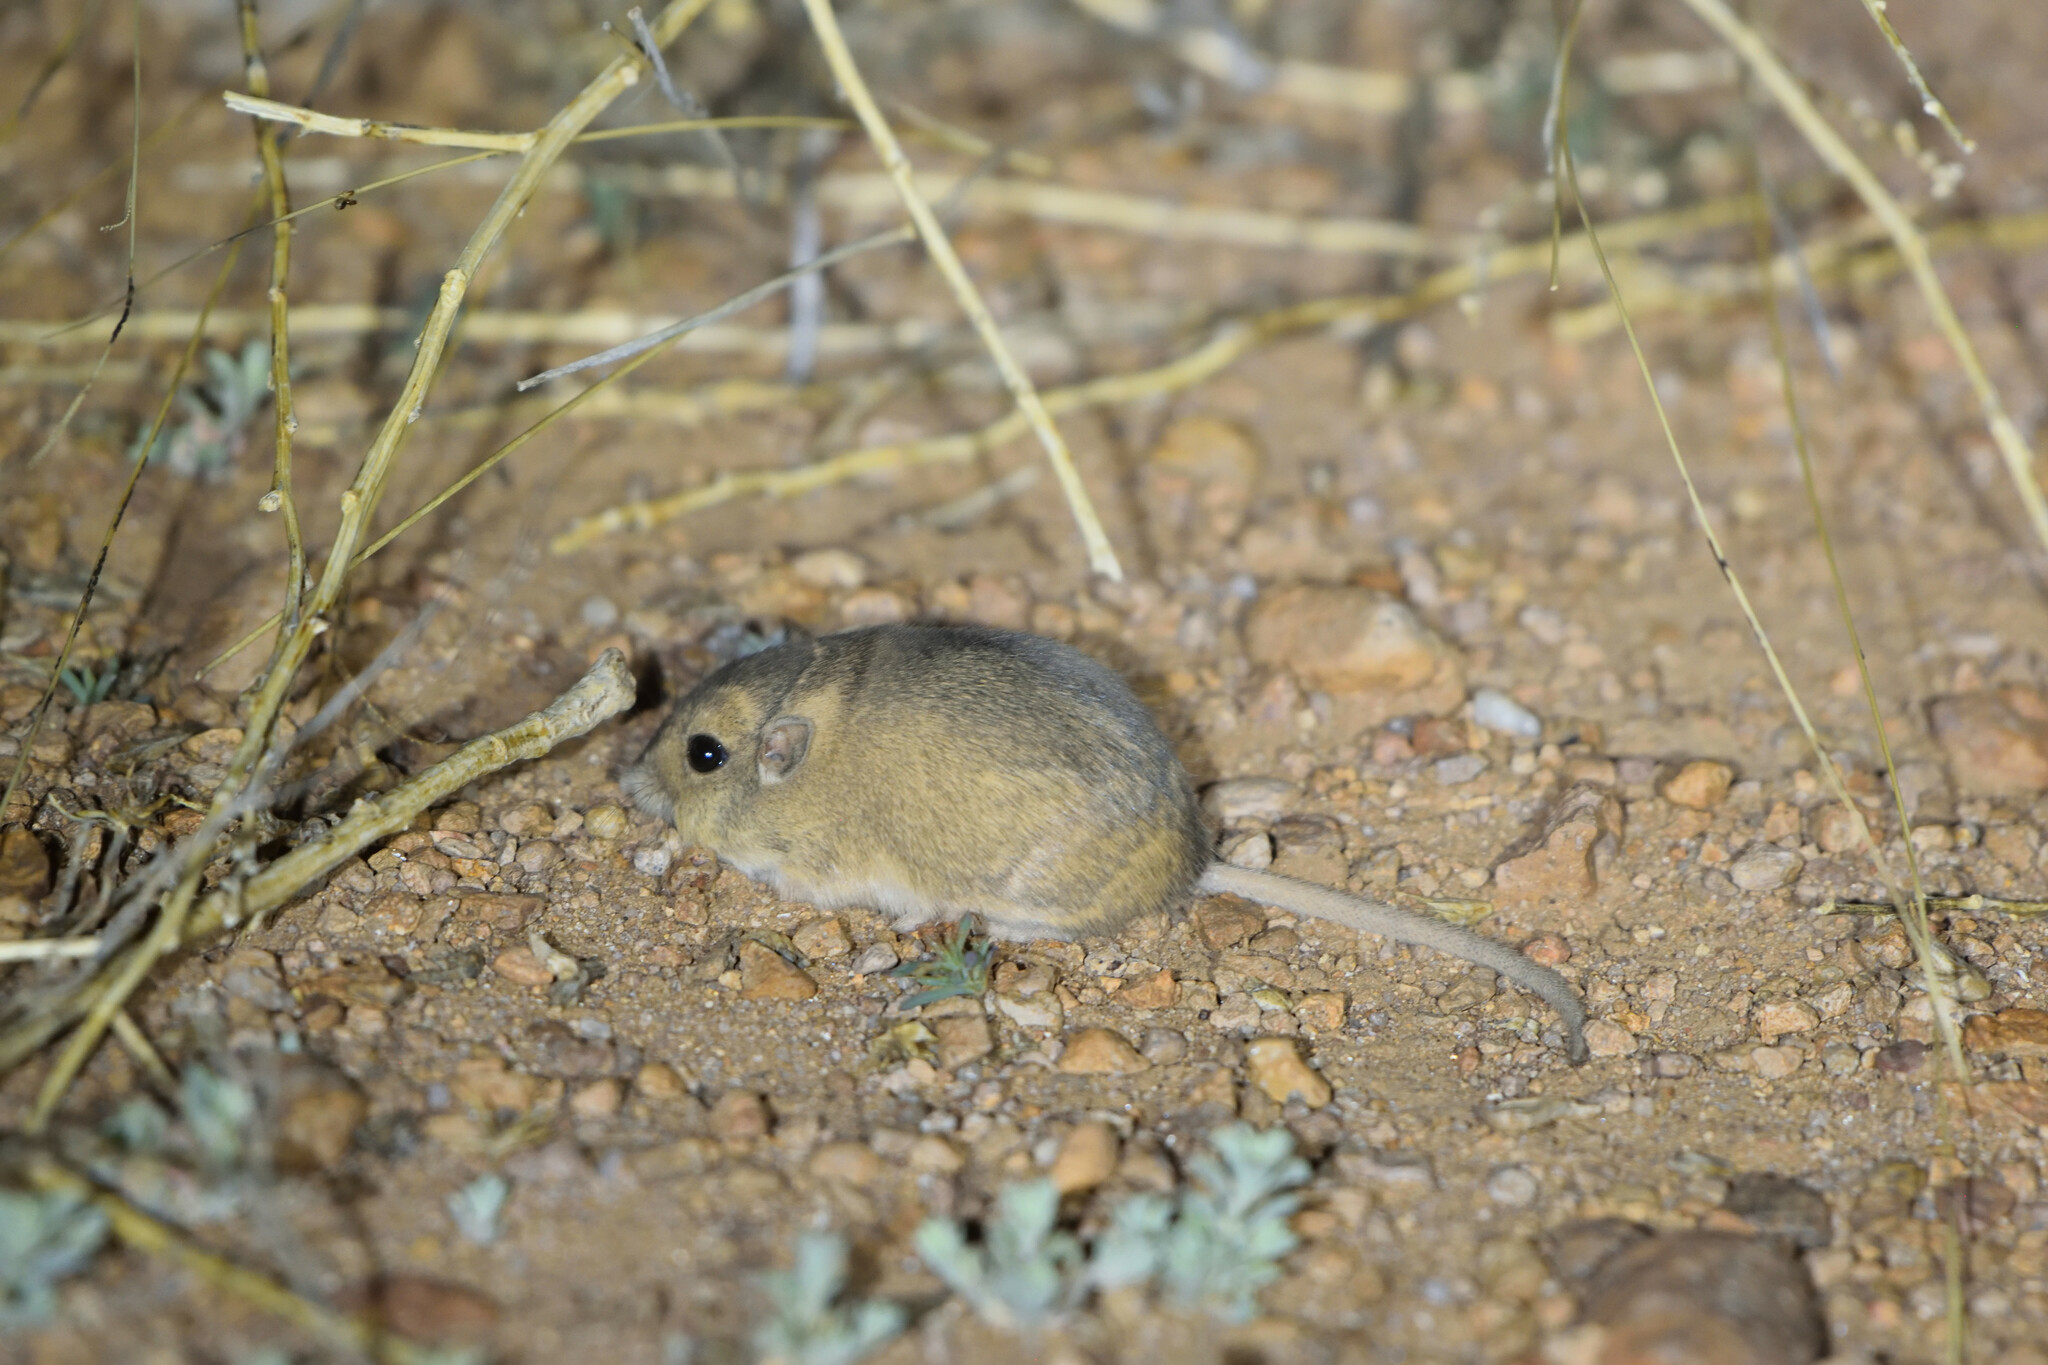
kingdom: Animalia
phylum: Chordata
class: Mammalia
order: Rodentia
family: Heteromyidae
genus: Perognathus
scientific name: Perognathus flavus
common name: Silky pocket mouse
